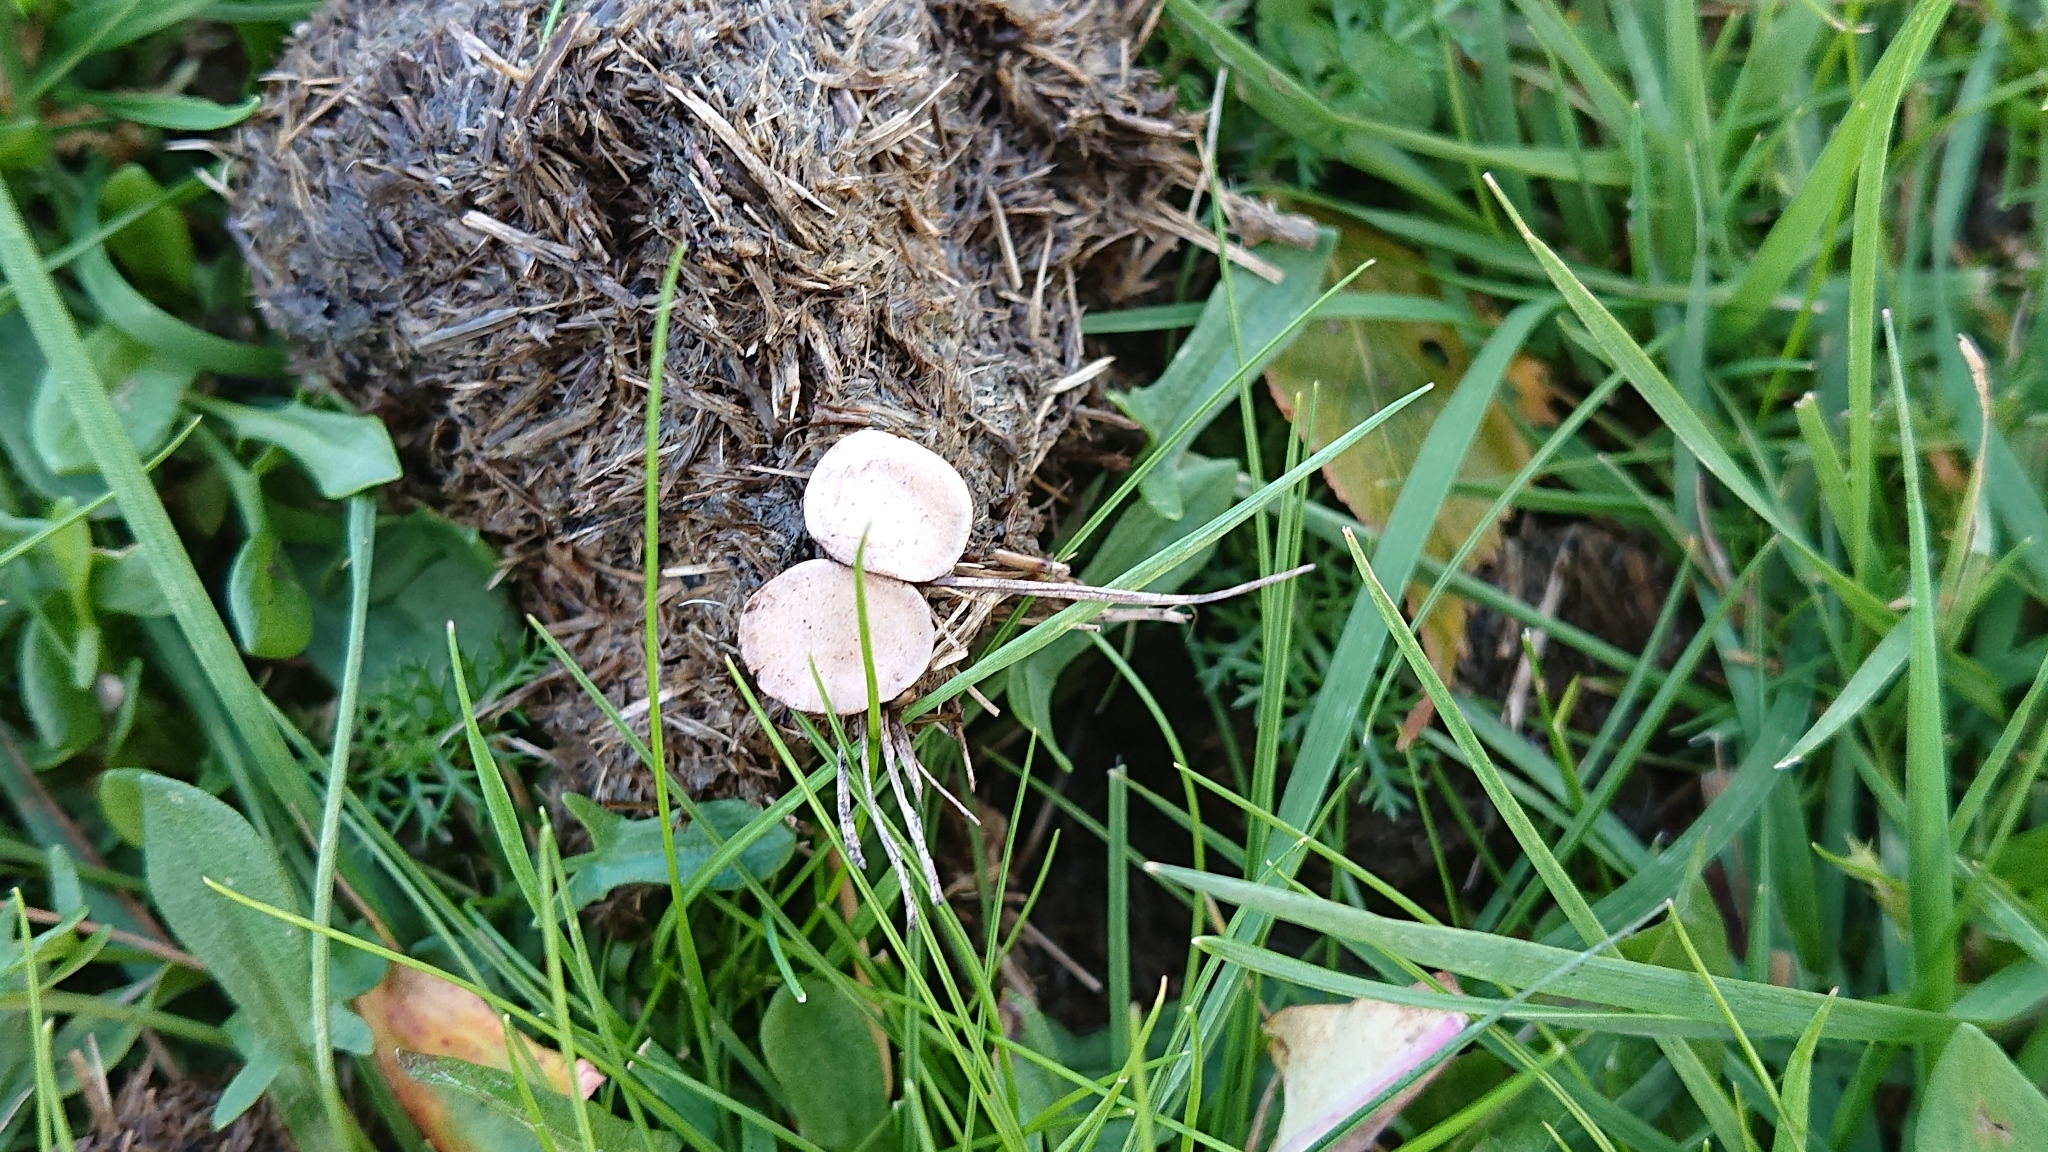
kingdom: Fungi
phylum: Ascomycota
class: Sordariomycetes
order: Xylariales
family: Xylariaceae
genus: Poronia
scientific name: Poronia punctata
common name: Nail fungus
